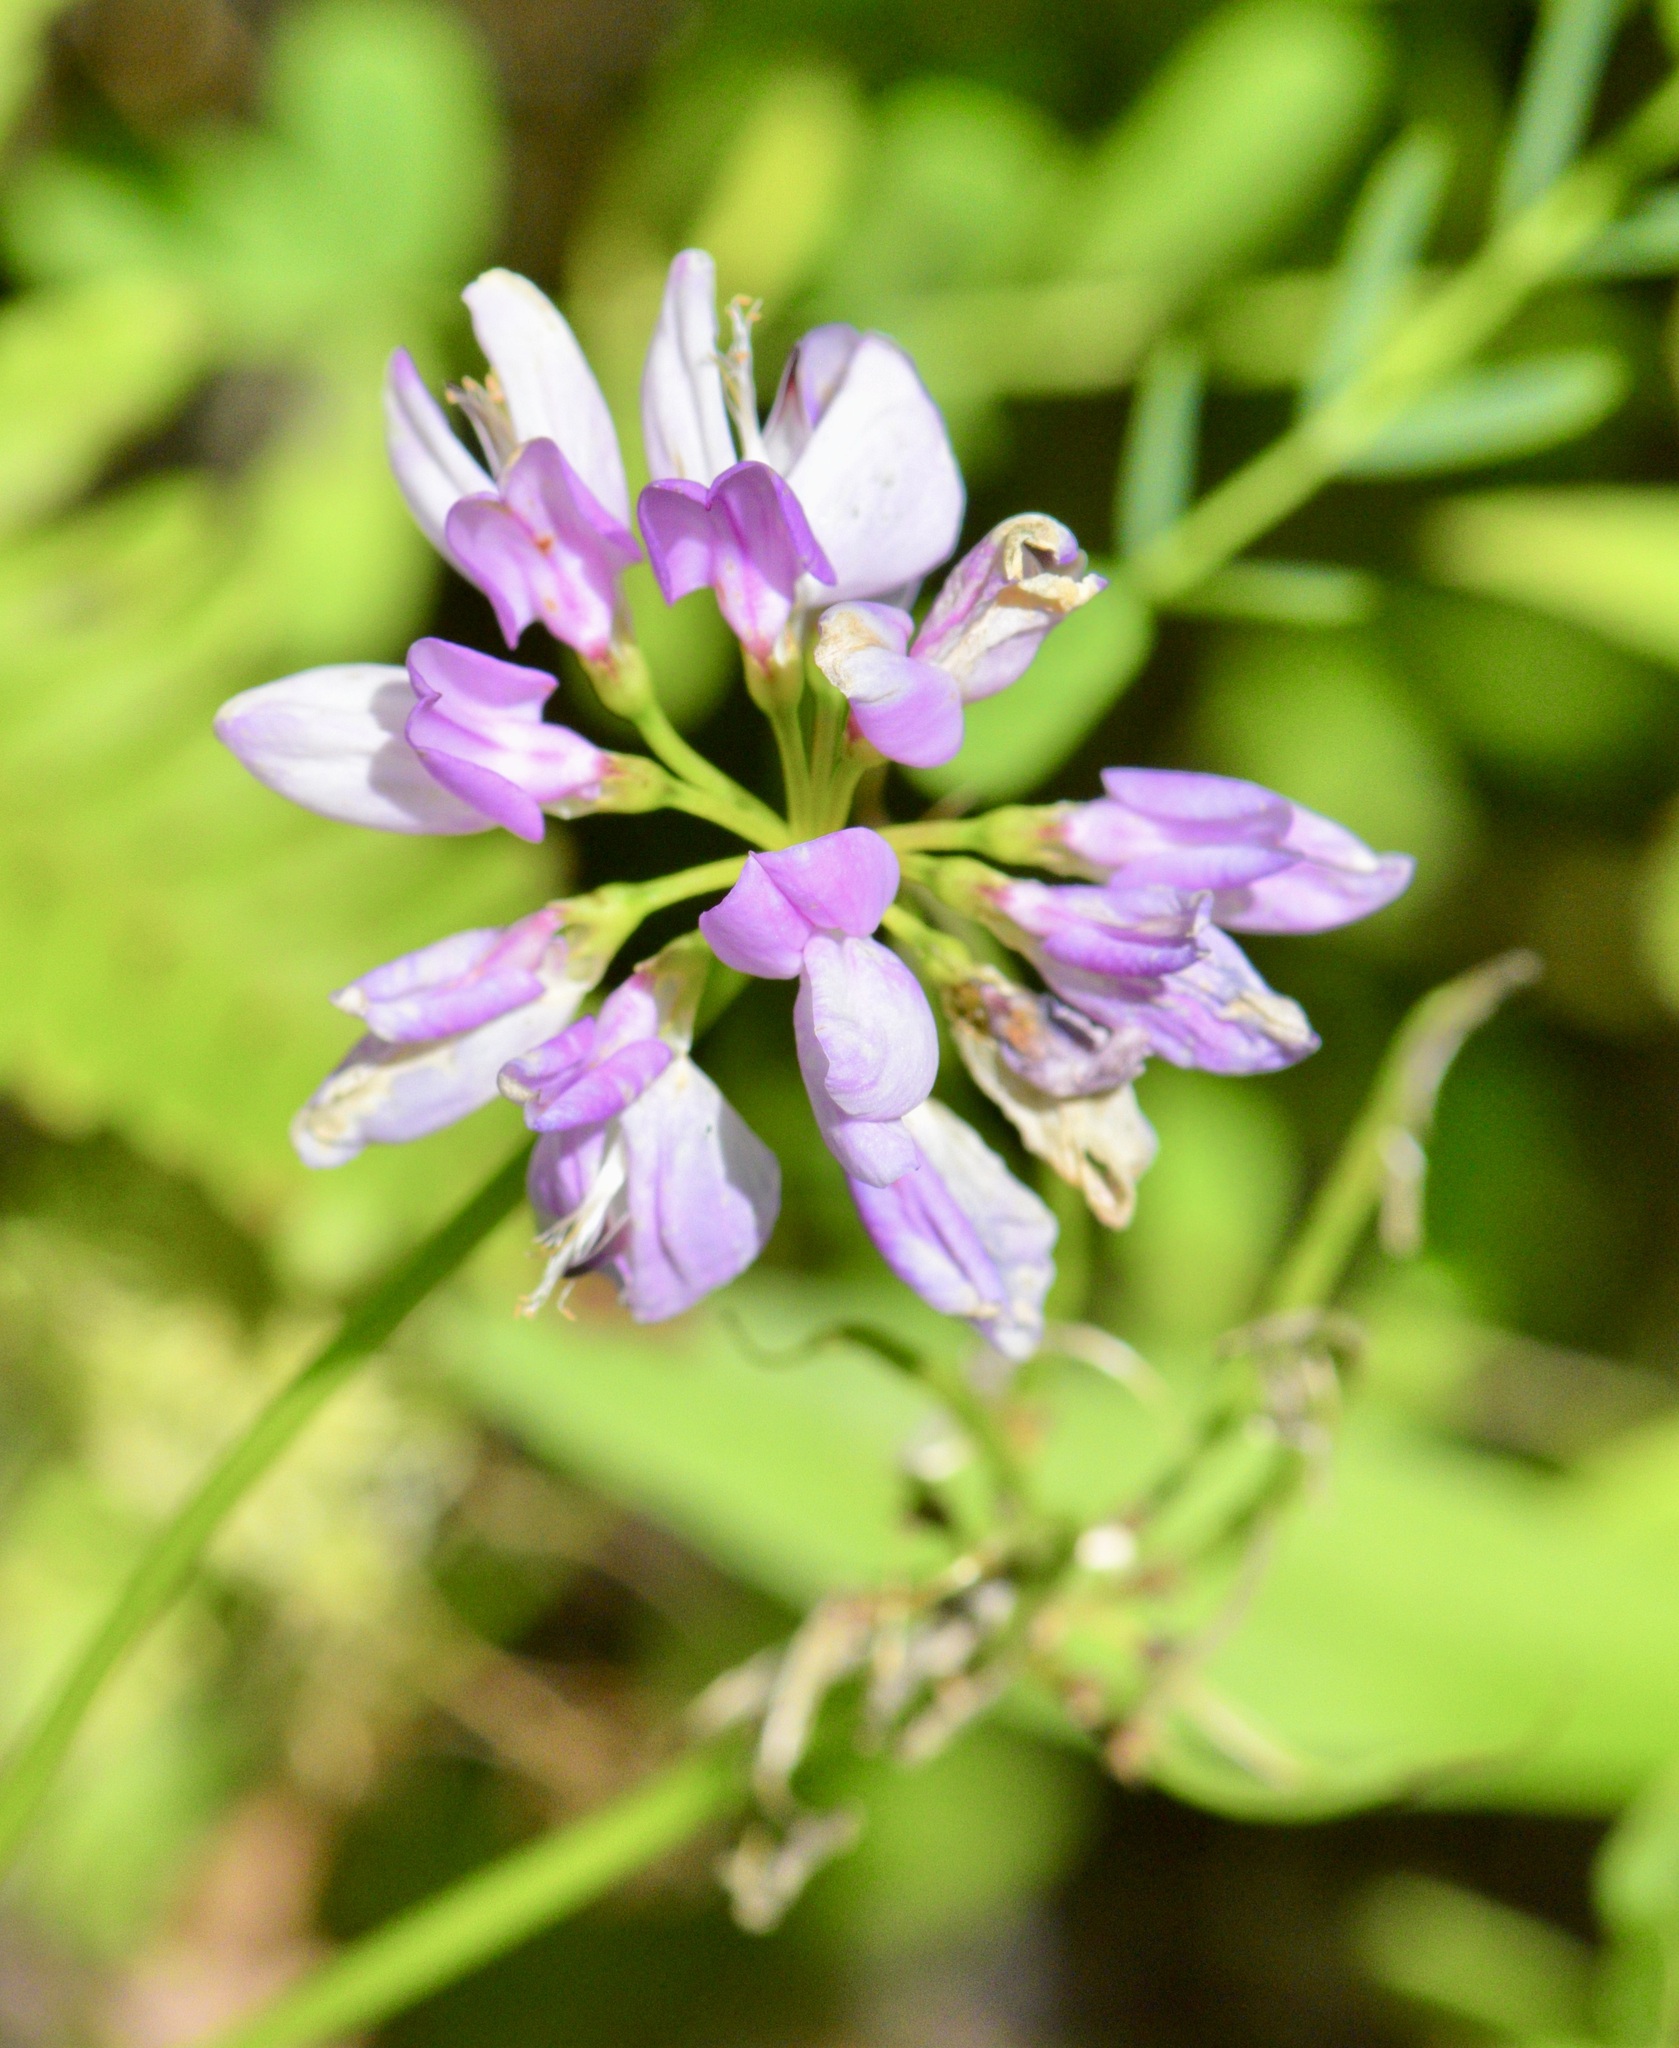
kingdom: Plantae
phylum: Tracheophyta
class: Magnoliopsida
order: Fabales
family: Fabaceae
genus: Coronilla
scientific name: Coronilla varia
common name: Crownvetch
